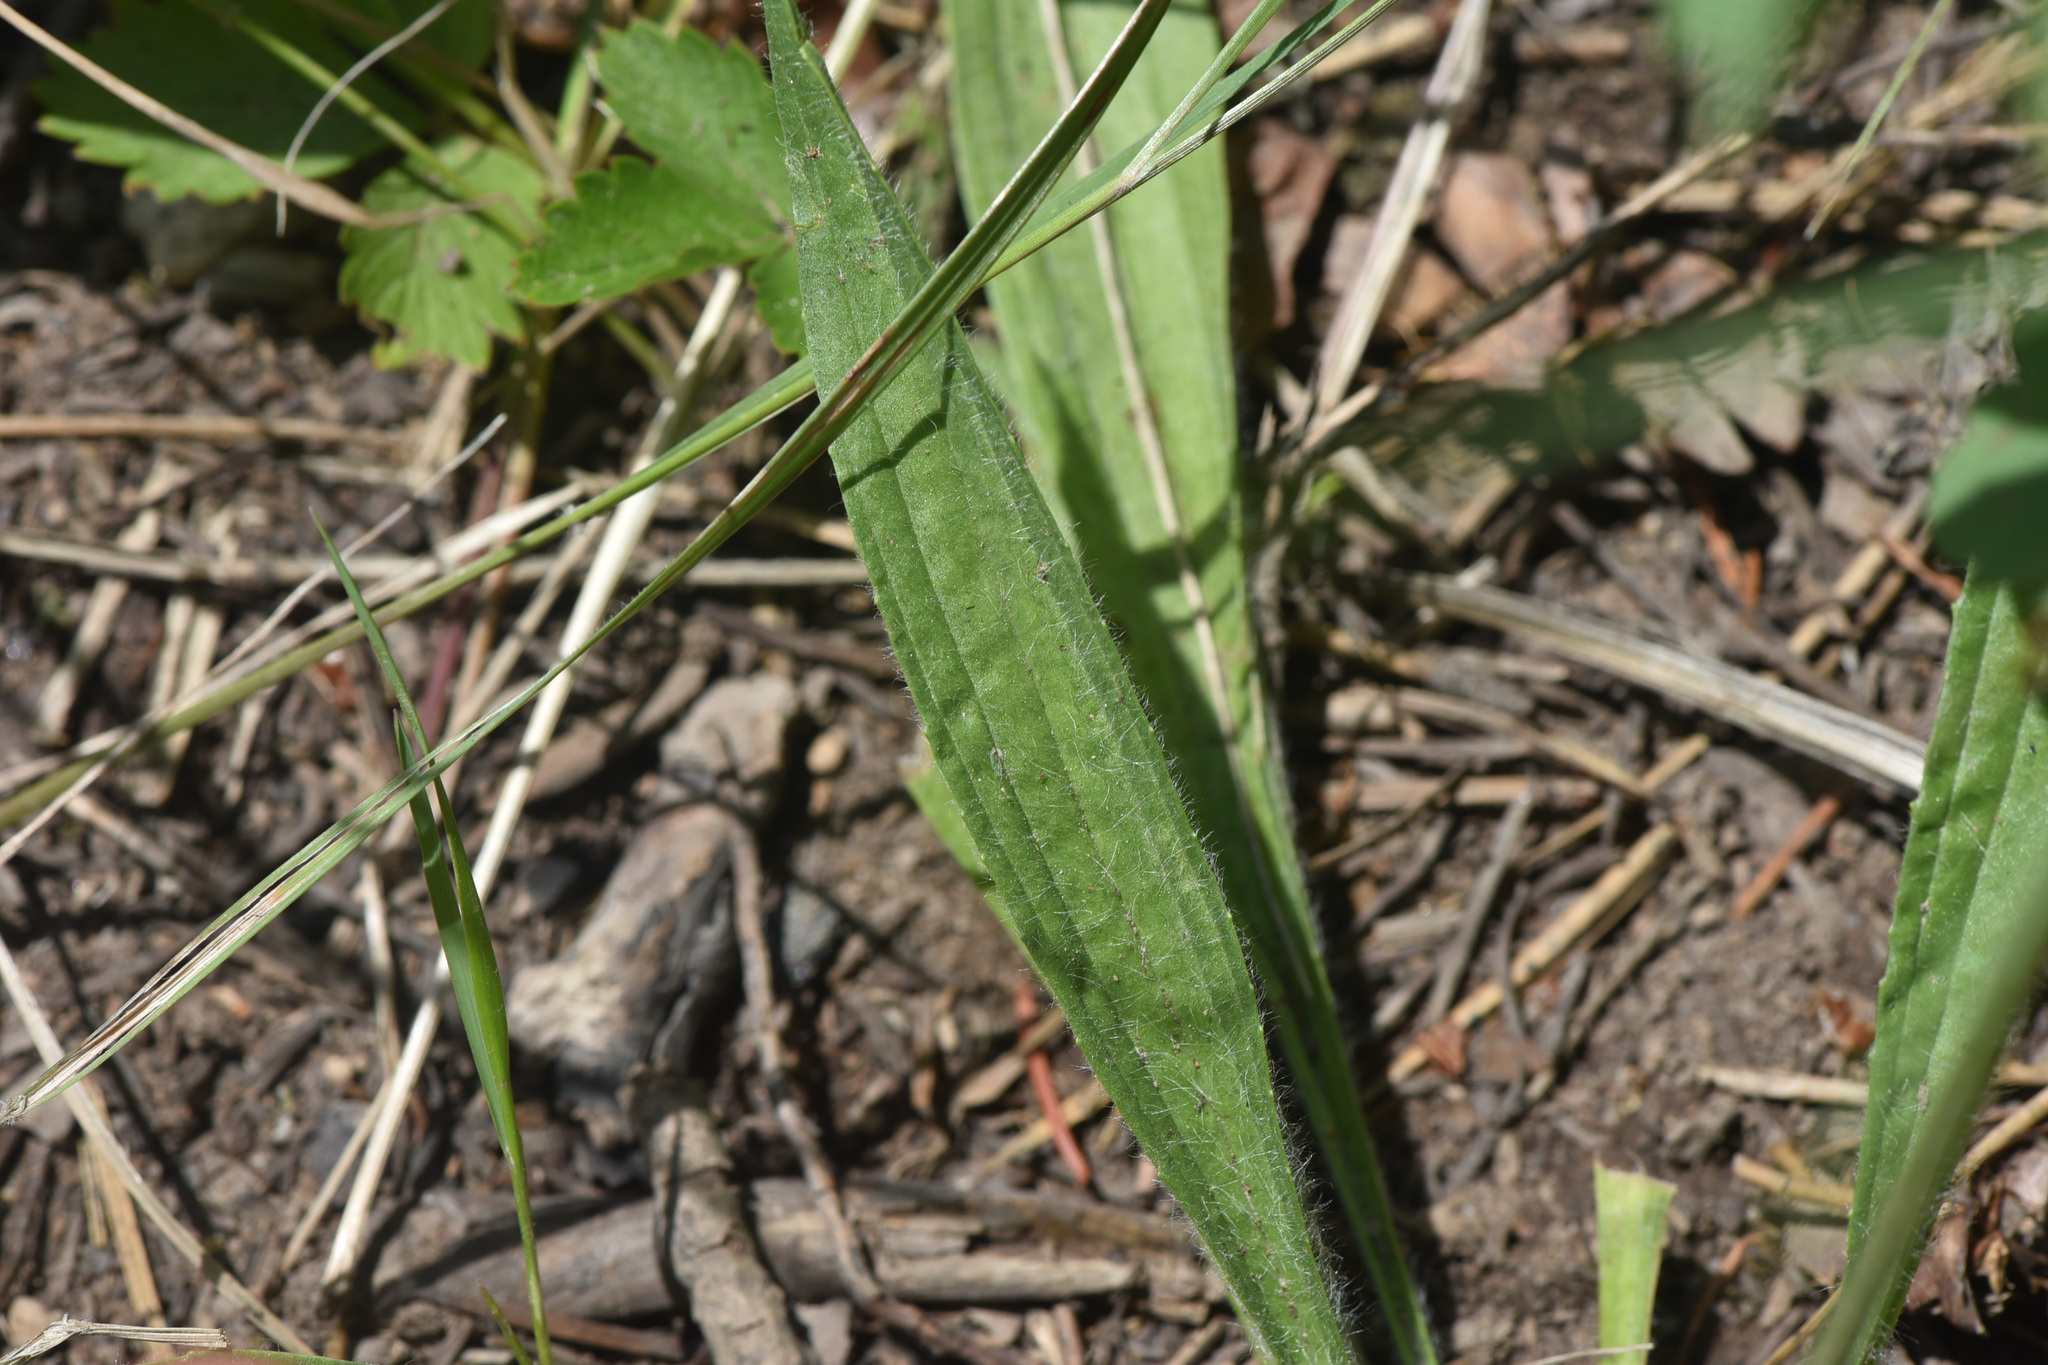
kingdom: Plantae
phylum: Tracheophyta
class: Magnoliopsida
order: Lamiales
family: Plantaginaceae
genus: Plantago
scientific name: Plantago lanceolata
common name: Ribwort plantain
